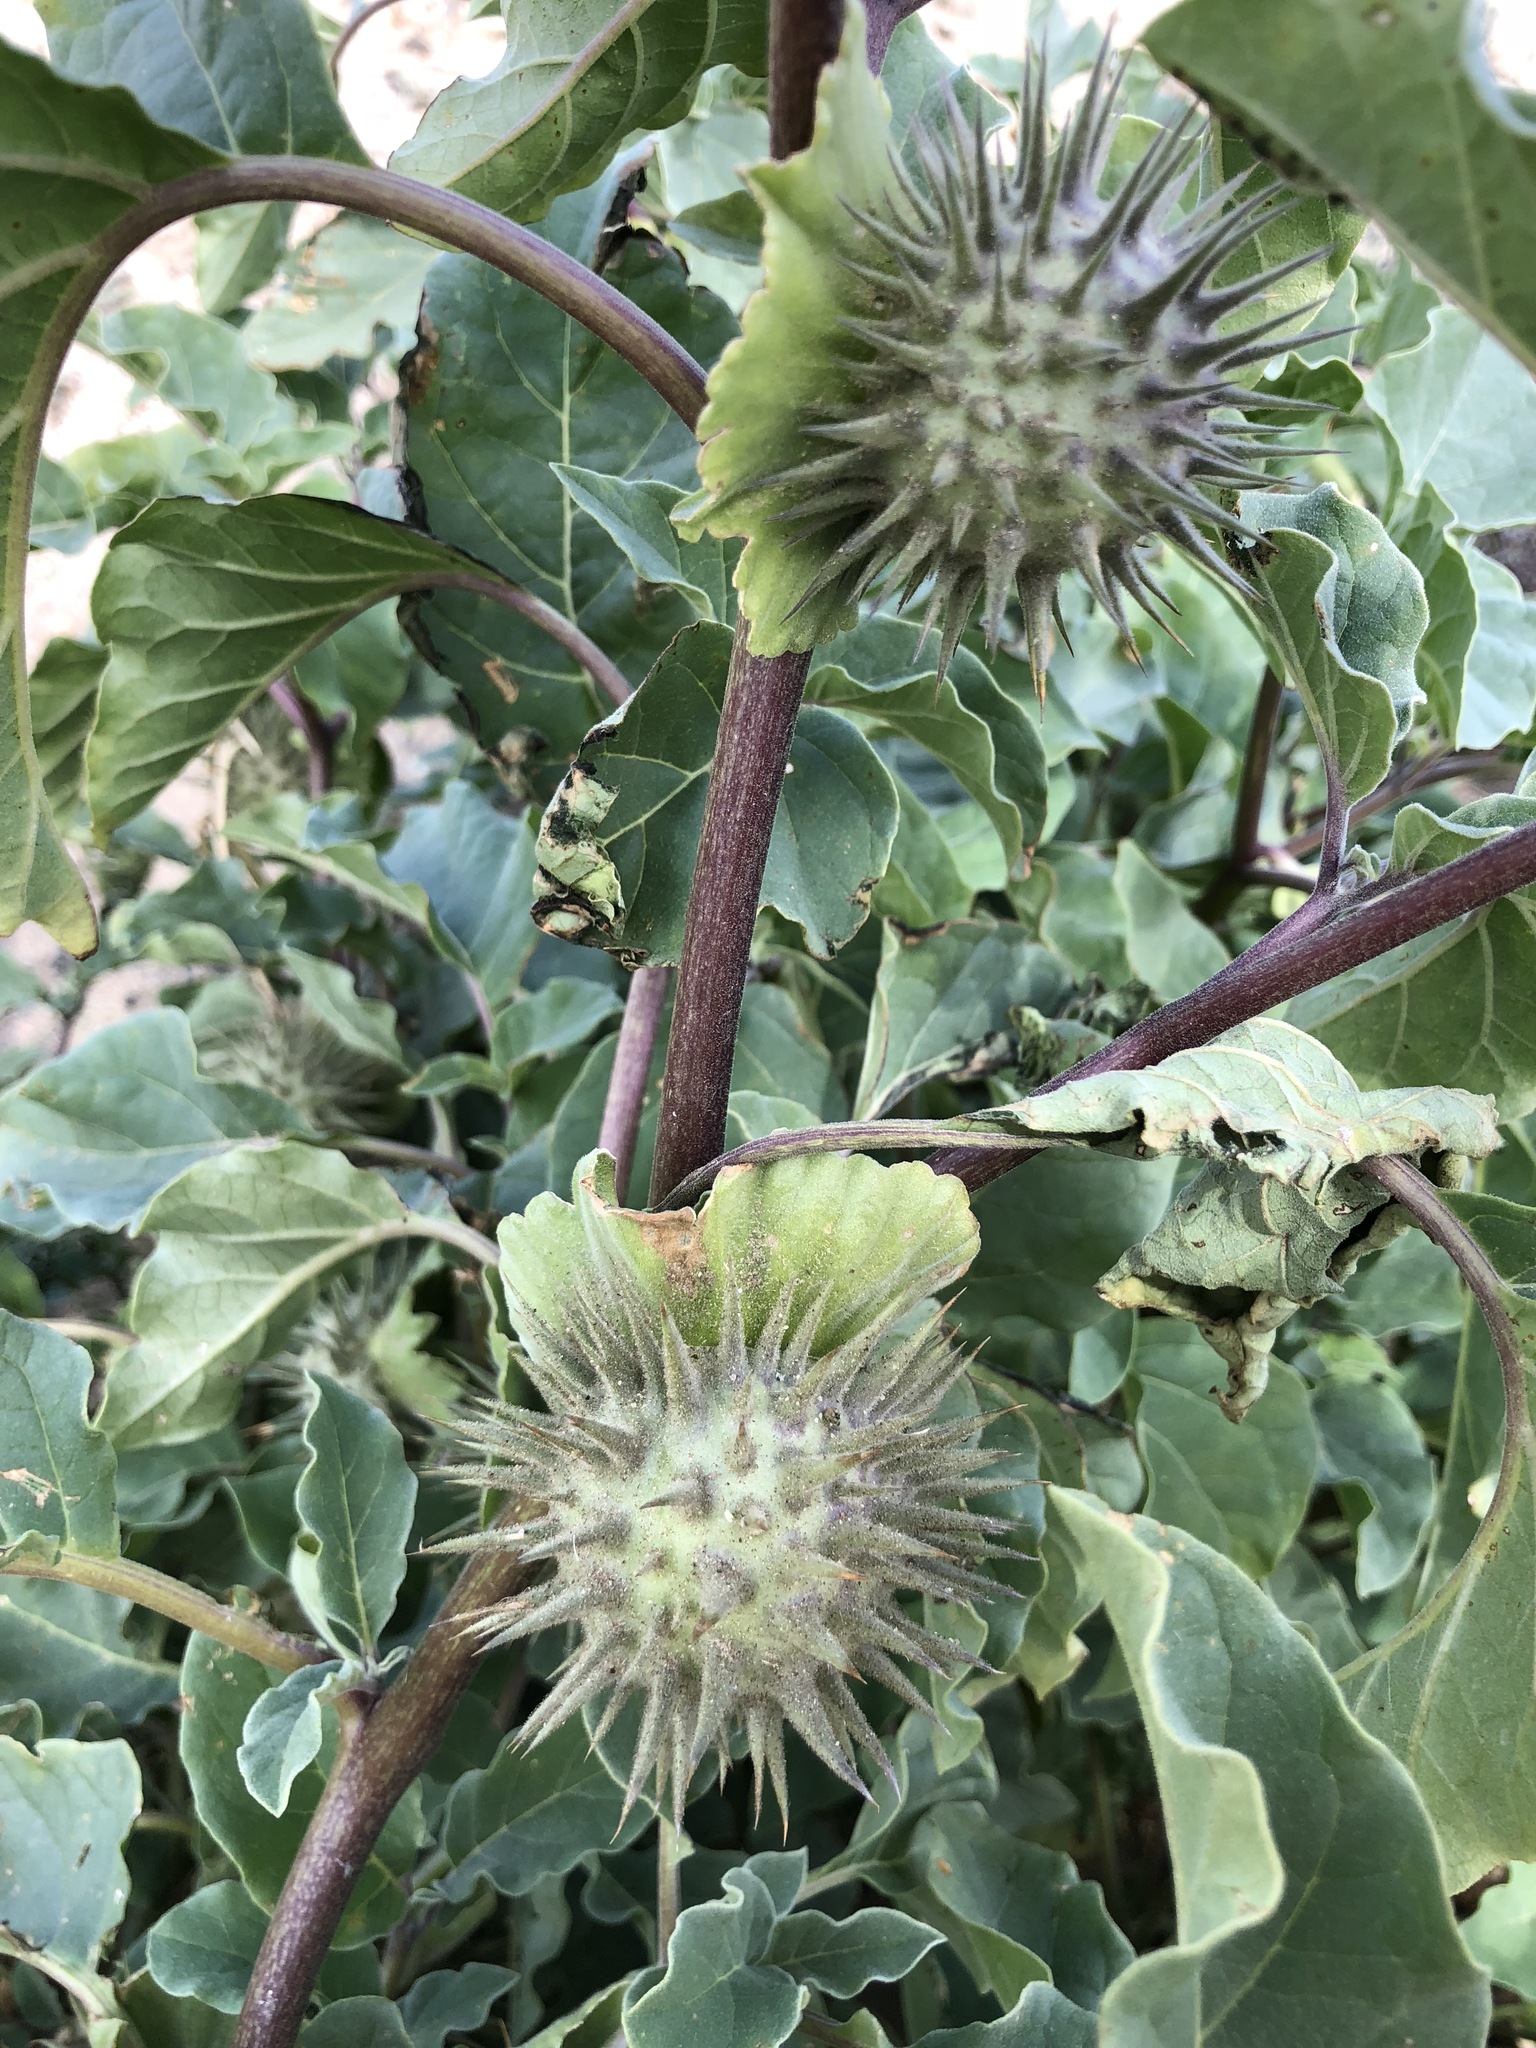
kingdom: Plantae
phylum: Tracheophyta
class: Magnoliopsida
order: Solanales
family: Solanaceae
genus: Datura
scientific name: Datura wrightii
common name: Sacred thorn-apple
